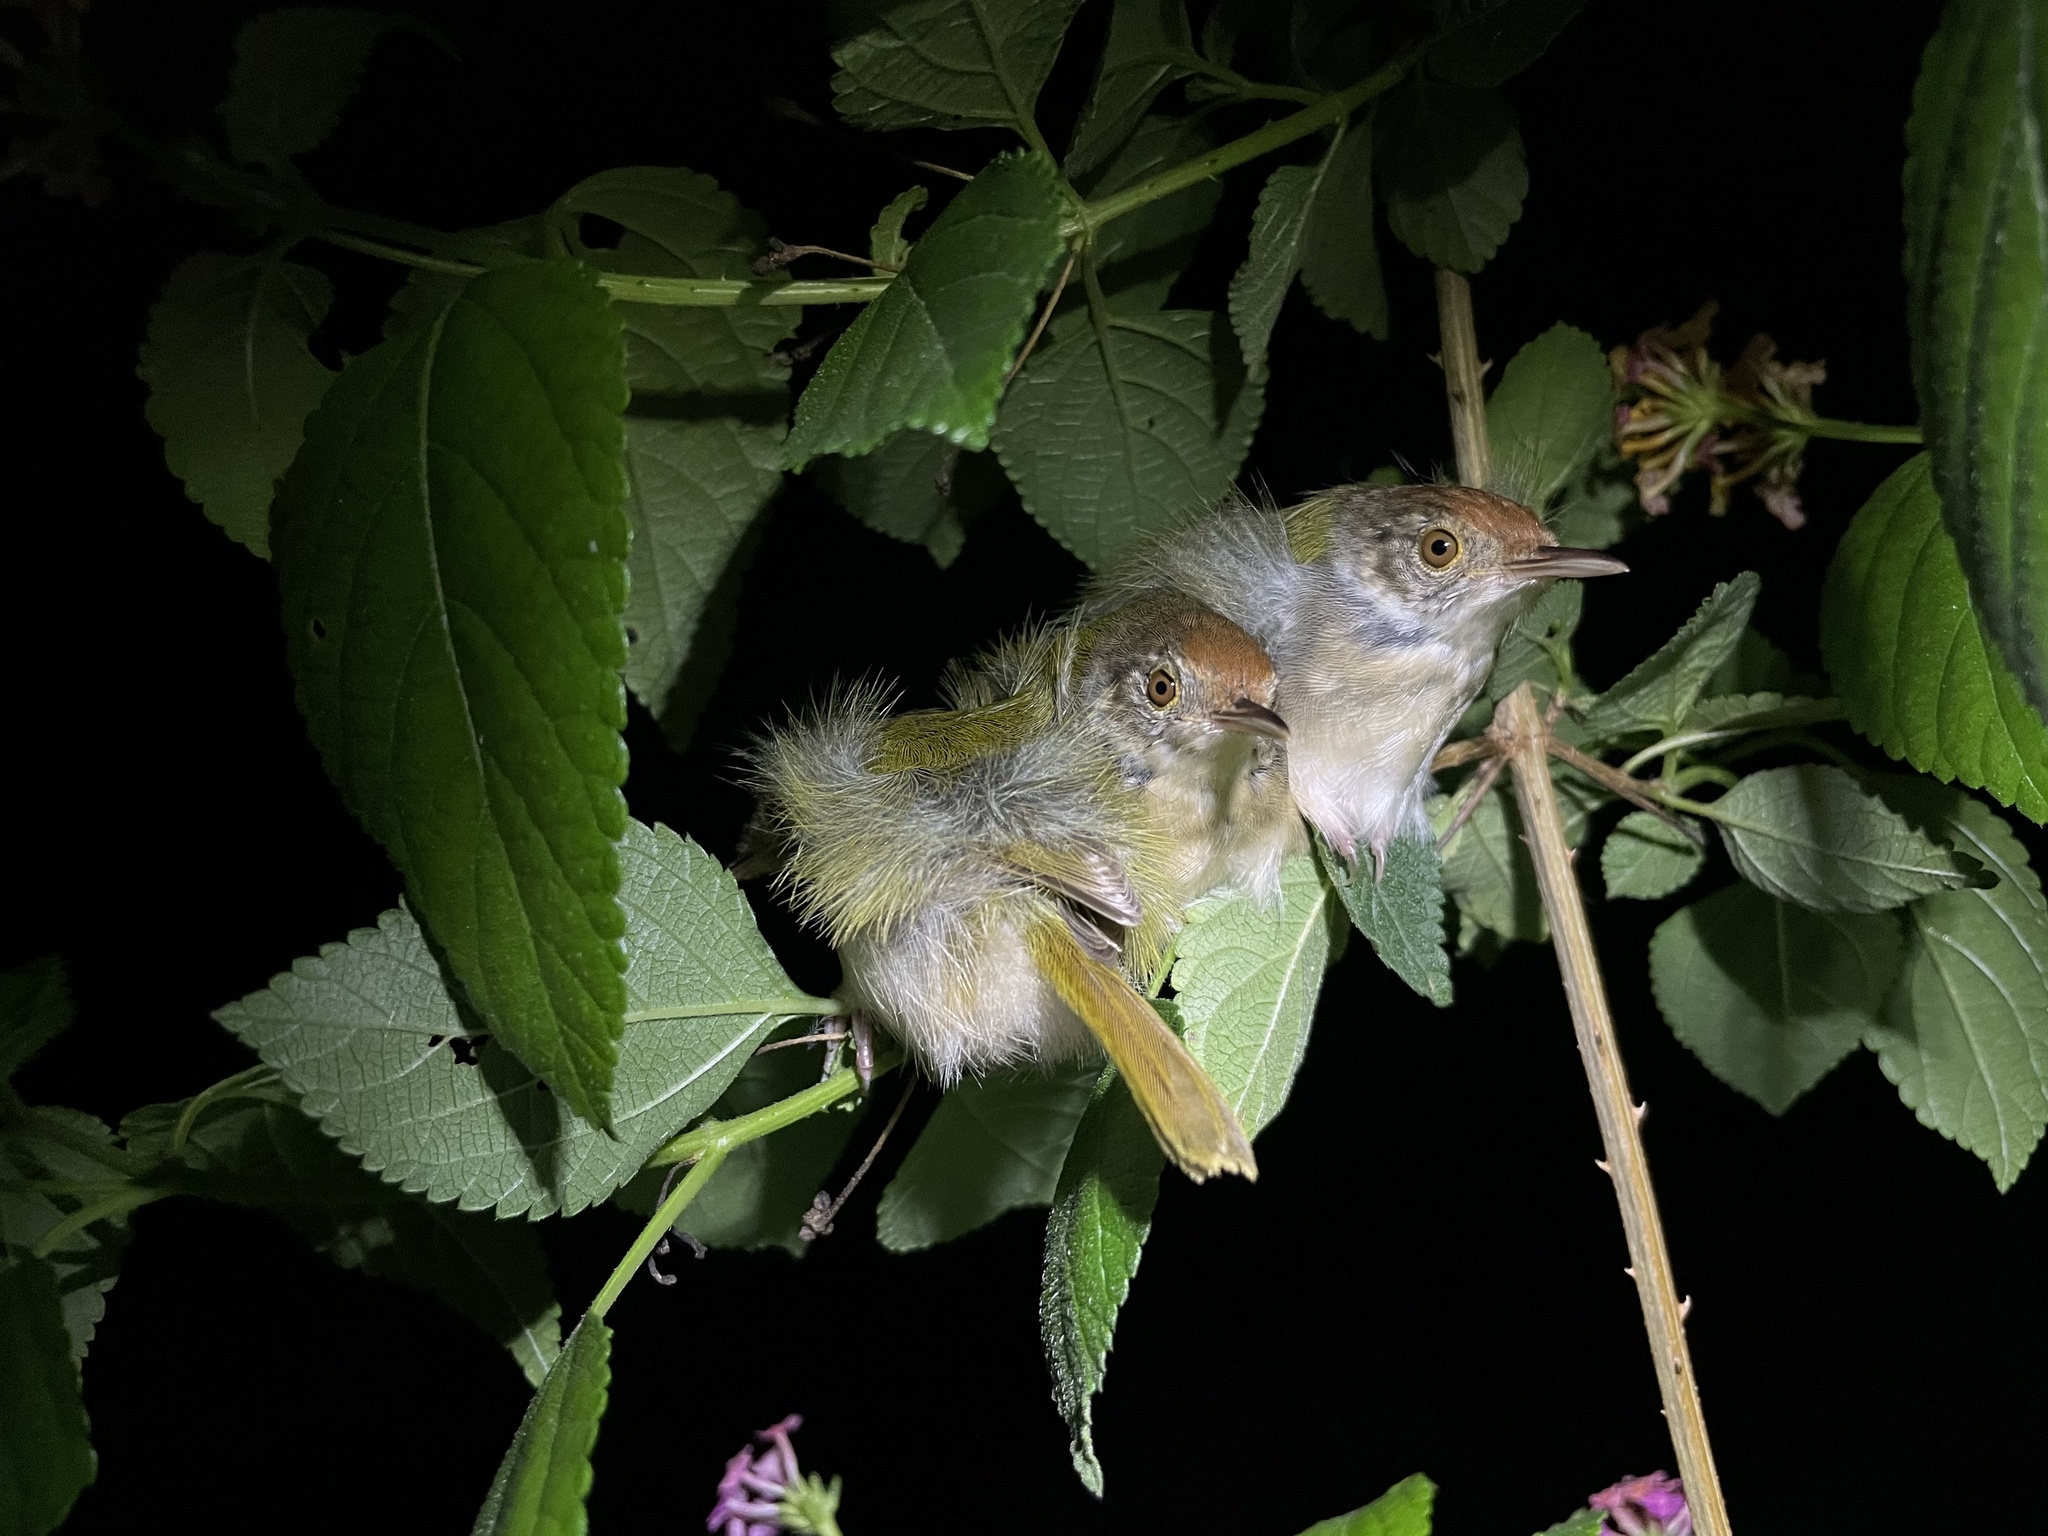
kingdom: Animalia
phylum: Chordata
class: Aves
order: Passeriformes
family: Cisticolidae
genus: Orthotomus
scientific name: Orthotomus sutorius
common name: Common tailorbird
